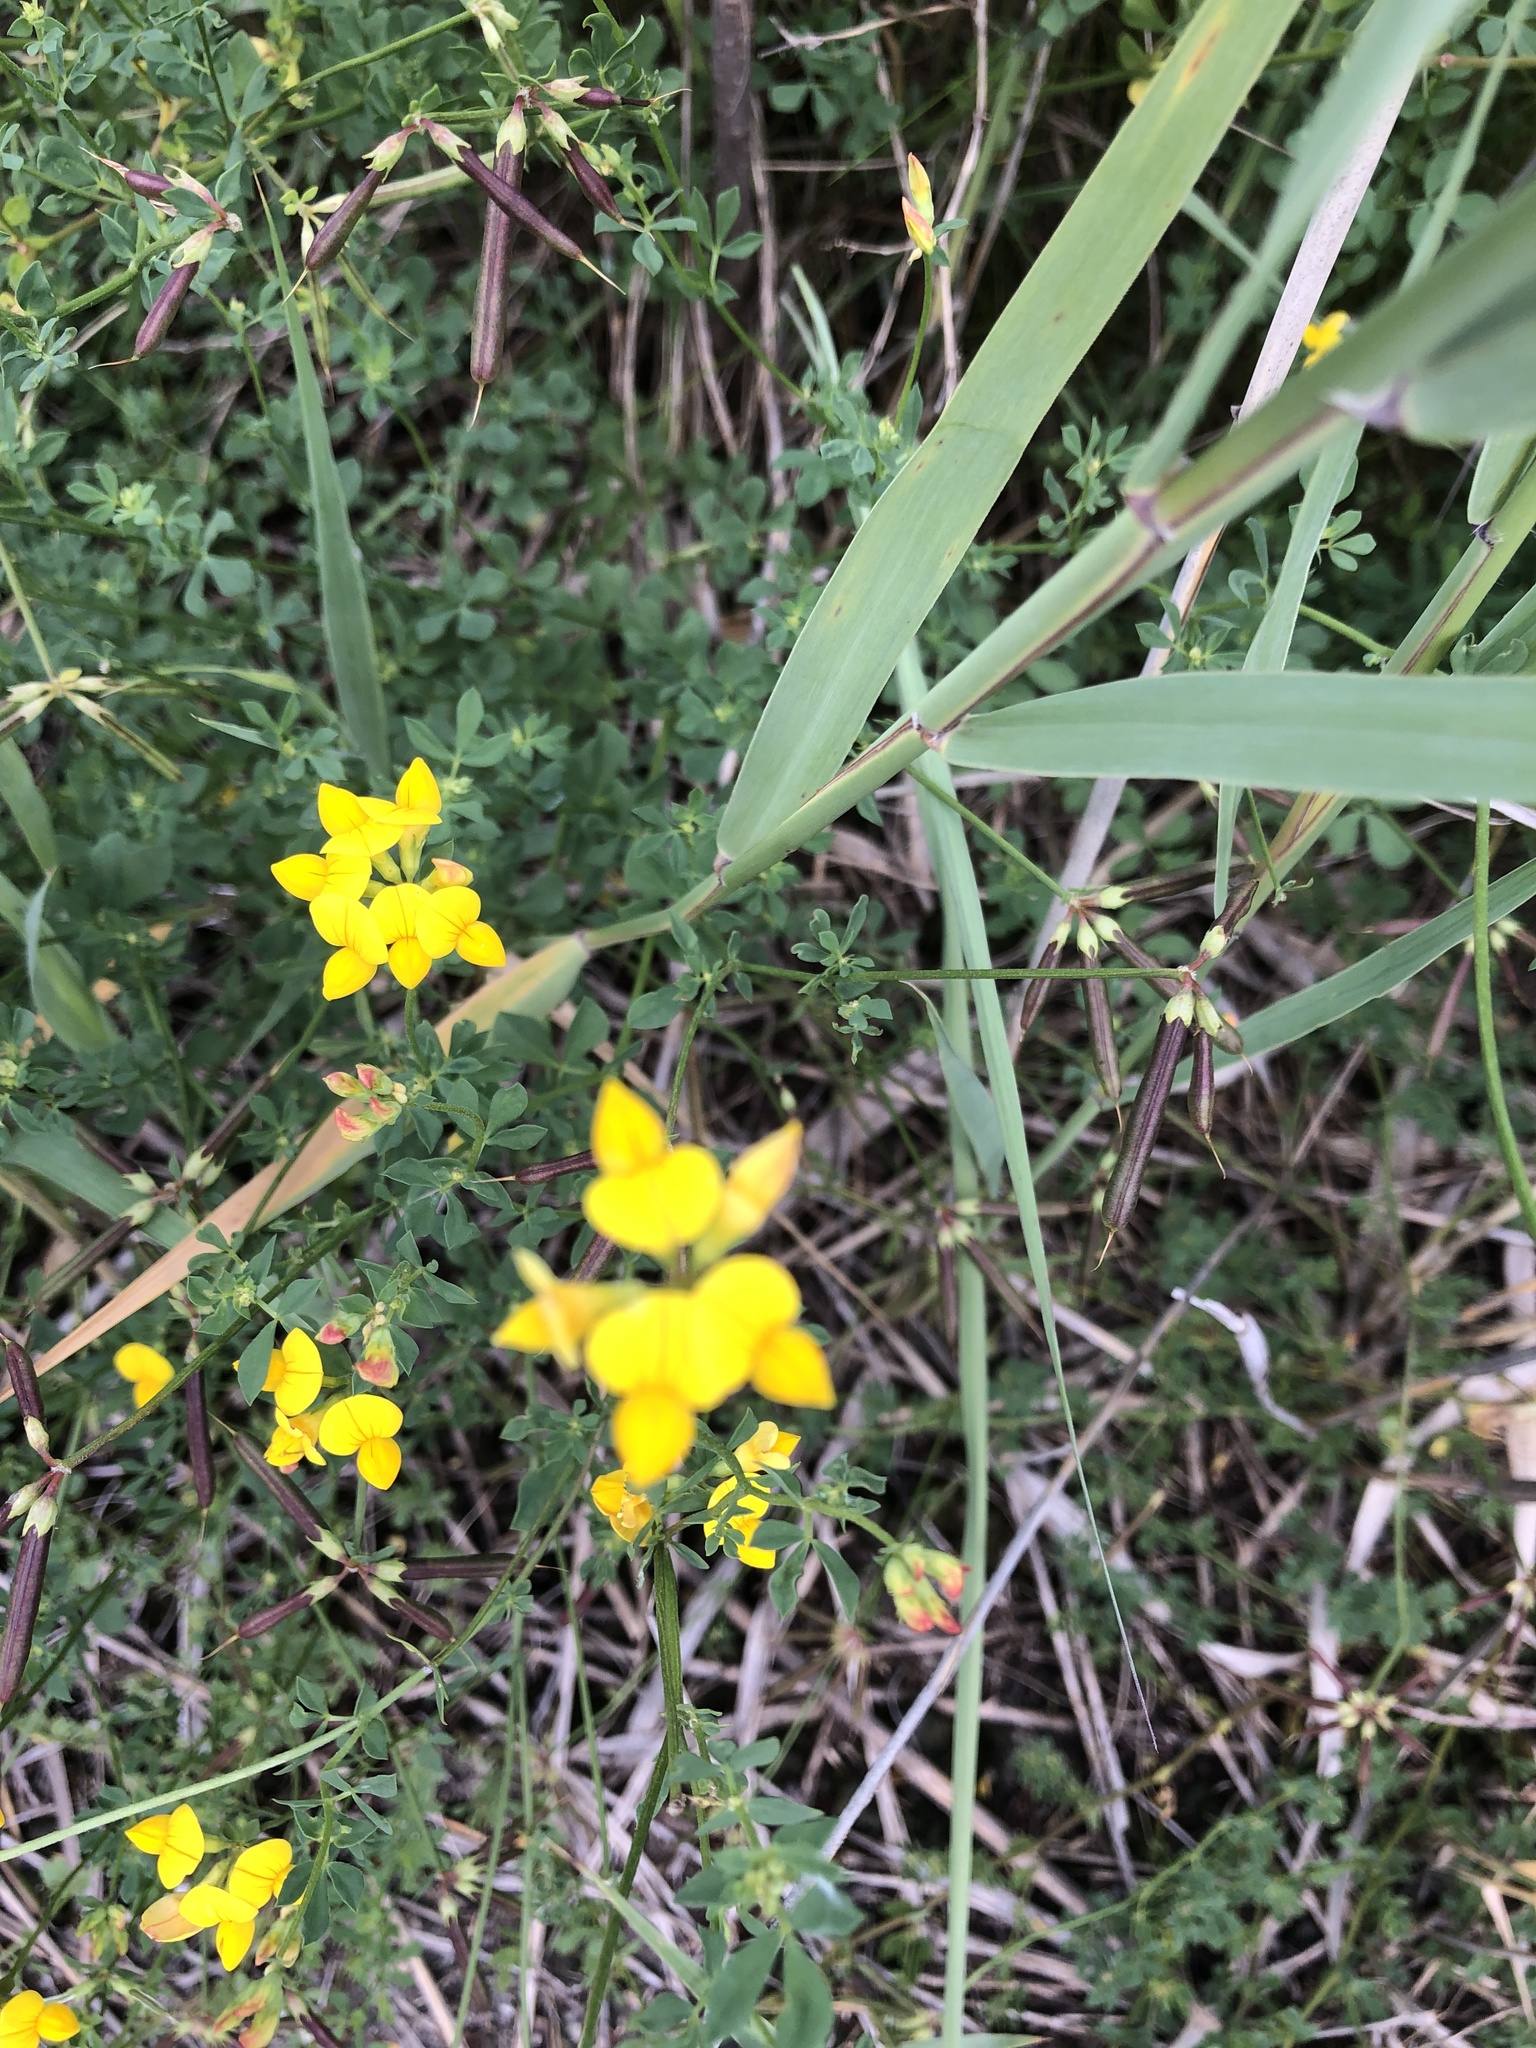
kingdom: Plantae
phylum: Tracheophyta
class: Magnoliopsida
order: Fabales
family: Fabaceae
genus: Lotus
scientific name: Lotus corniculatus
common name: Common bird's-foot-trefoil
